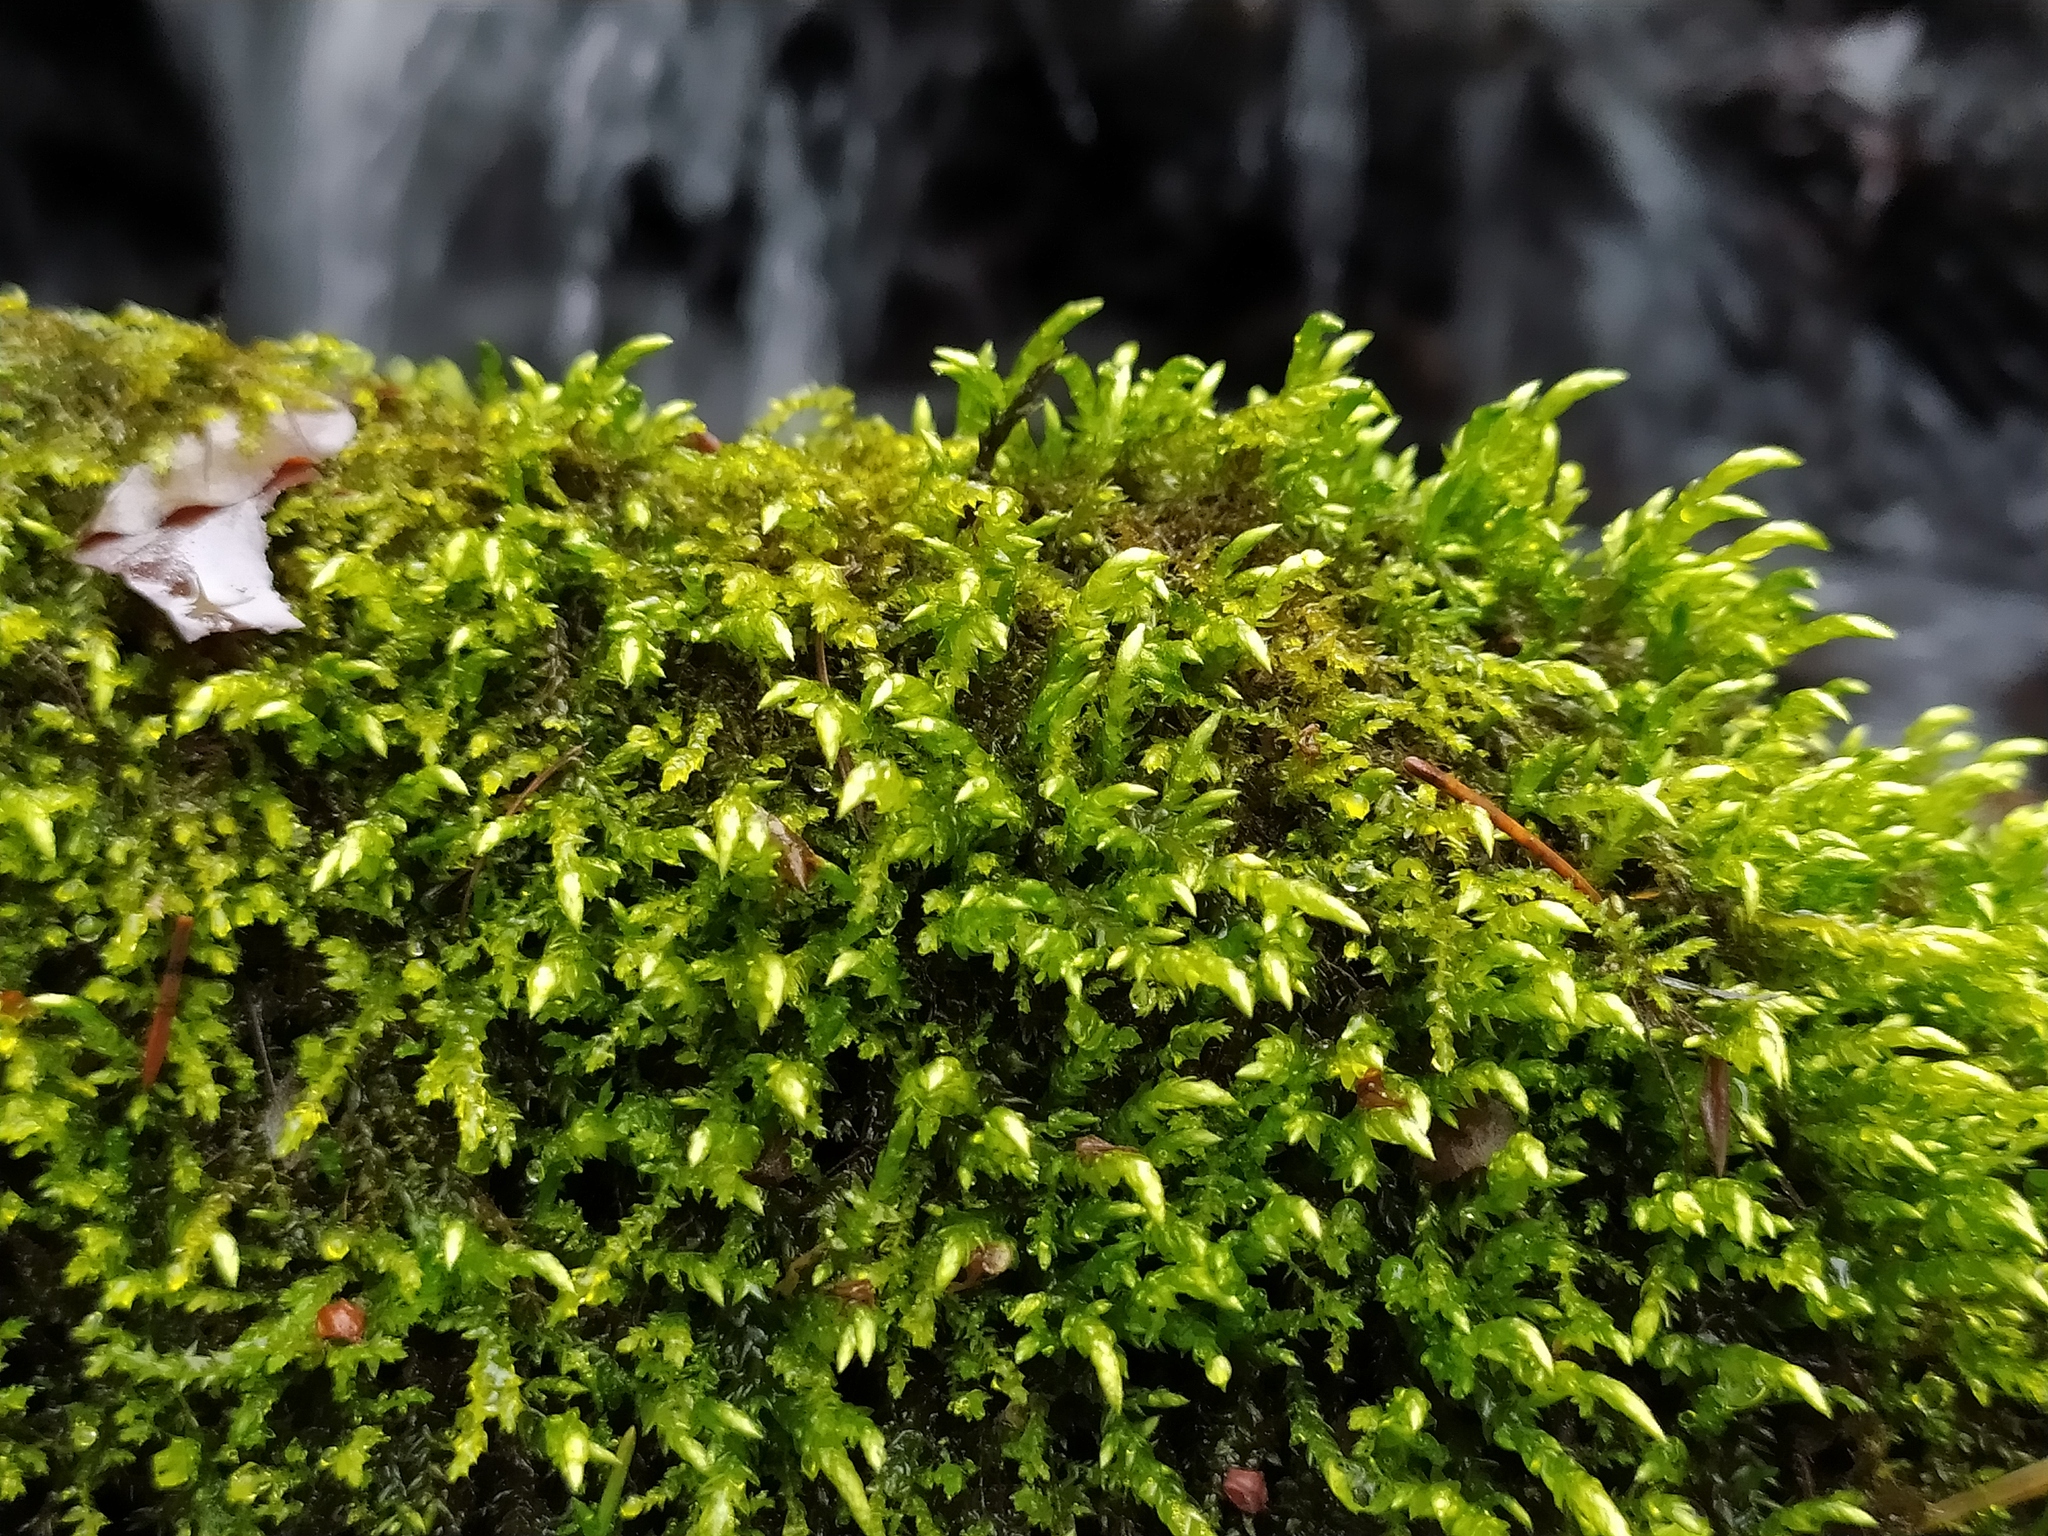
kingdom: Plantae
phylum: Bryophyta
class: Bryopsida
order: Hypnales
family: Brachytheciaceae
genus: Brachythecium
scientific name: Brachythecium rivulare
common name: River ragged moss
